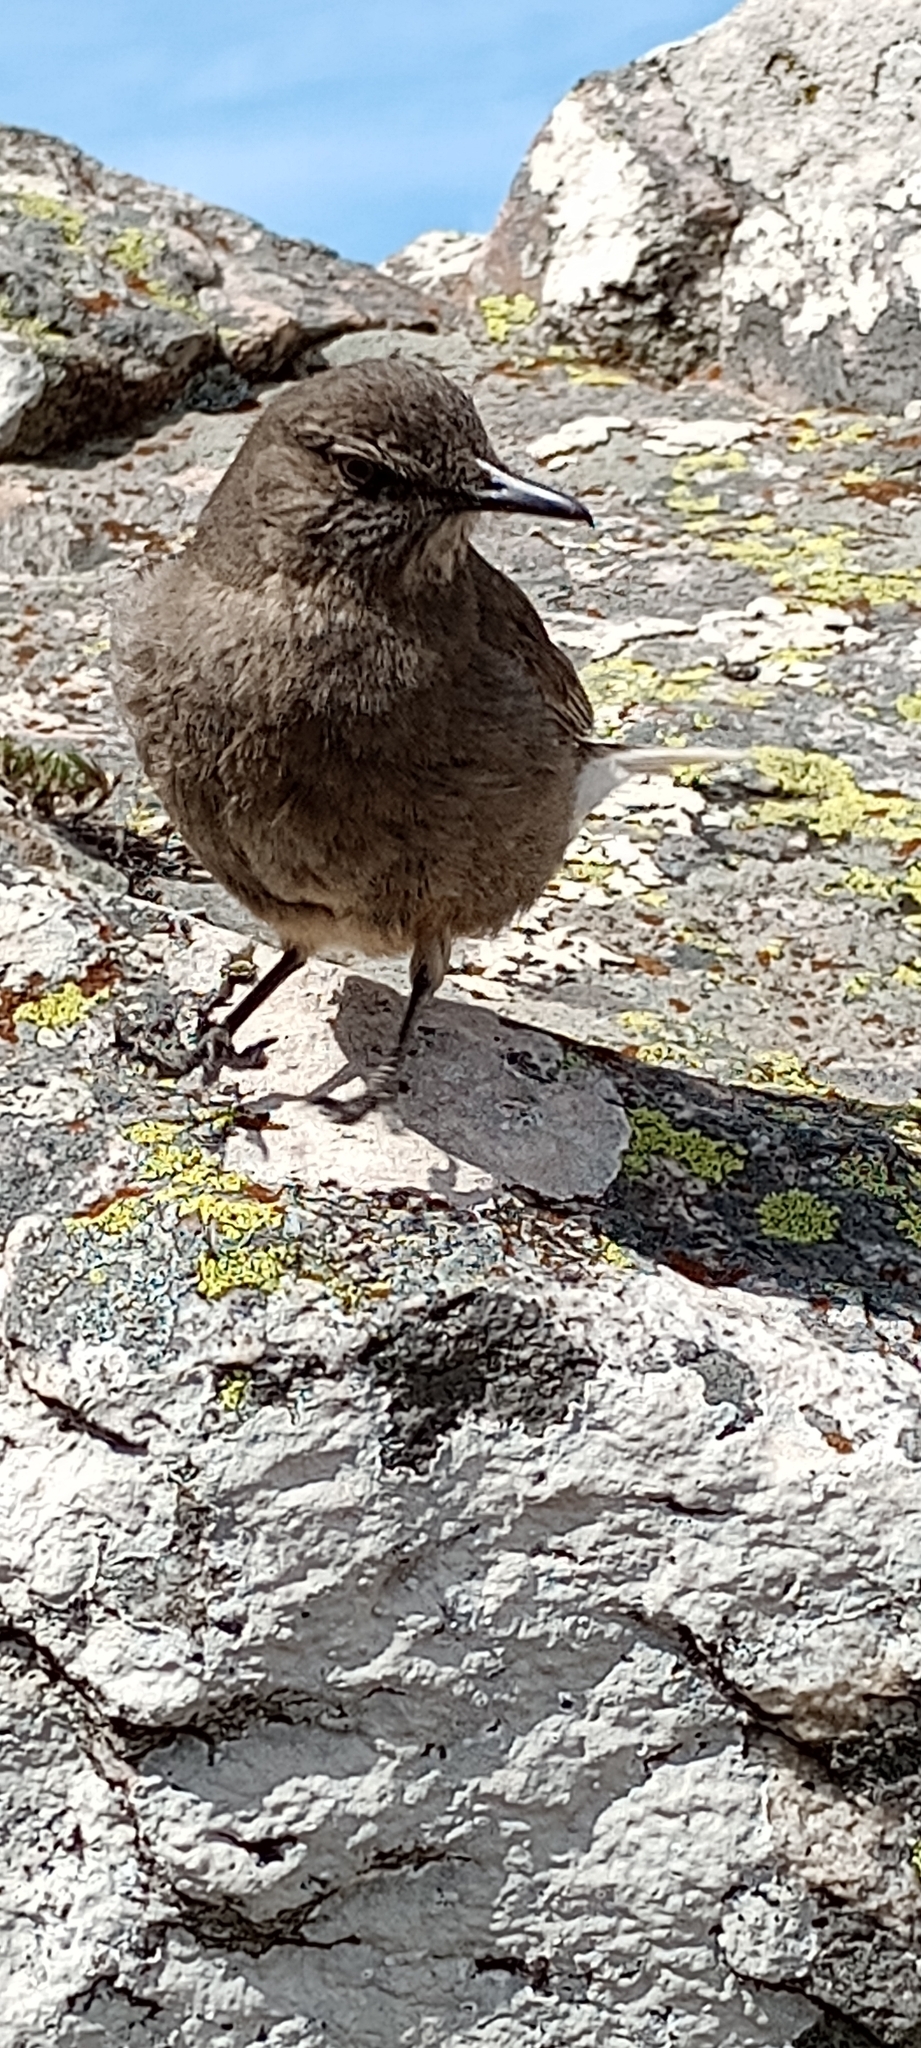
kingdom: Animalia
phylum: Chordata
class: Aves
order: Passeriformes
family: Tyrannidae
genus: Agriornis
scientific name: Agriornis montanus
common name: Black-billed shrike-tyrant
